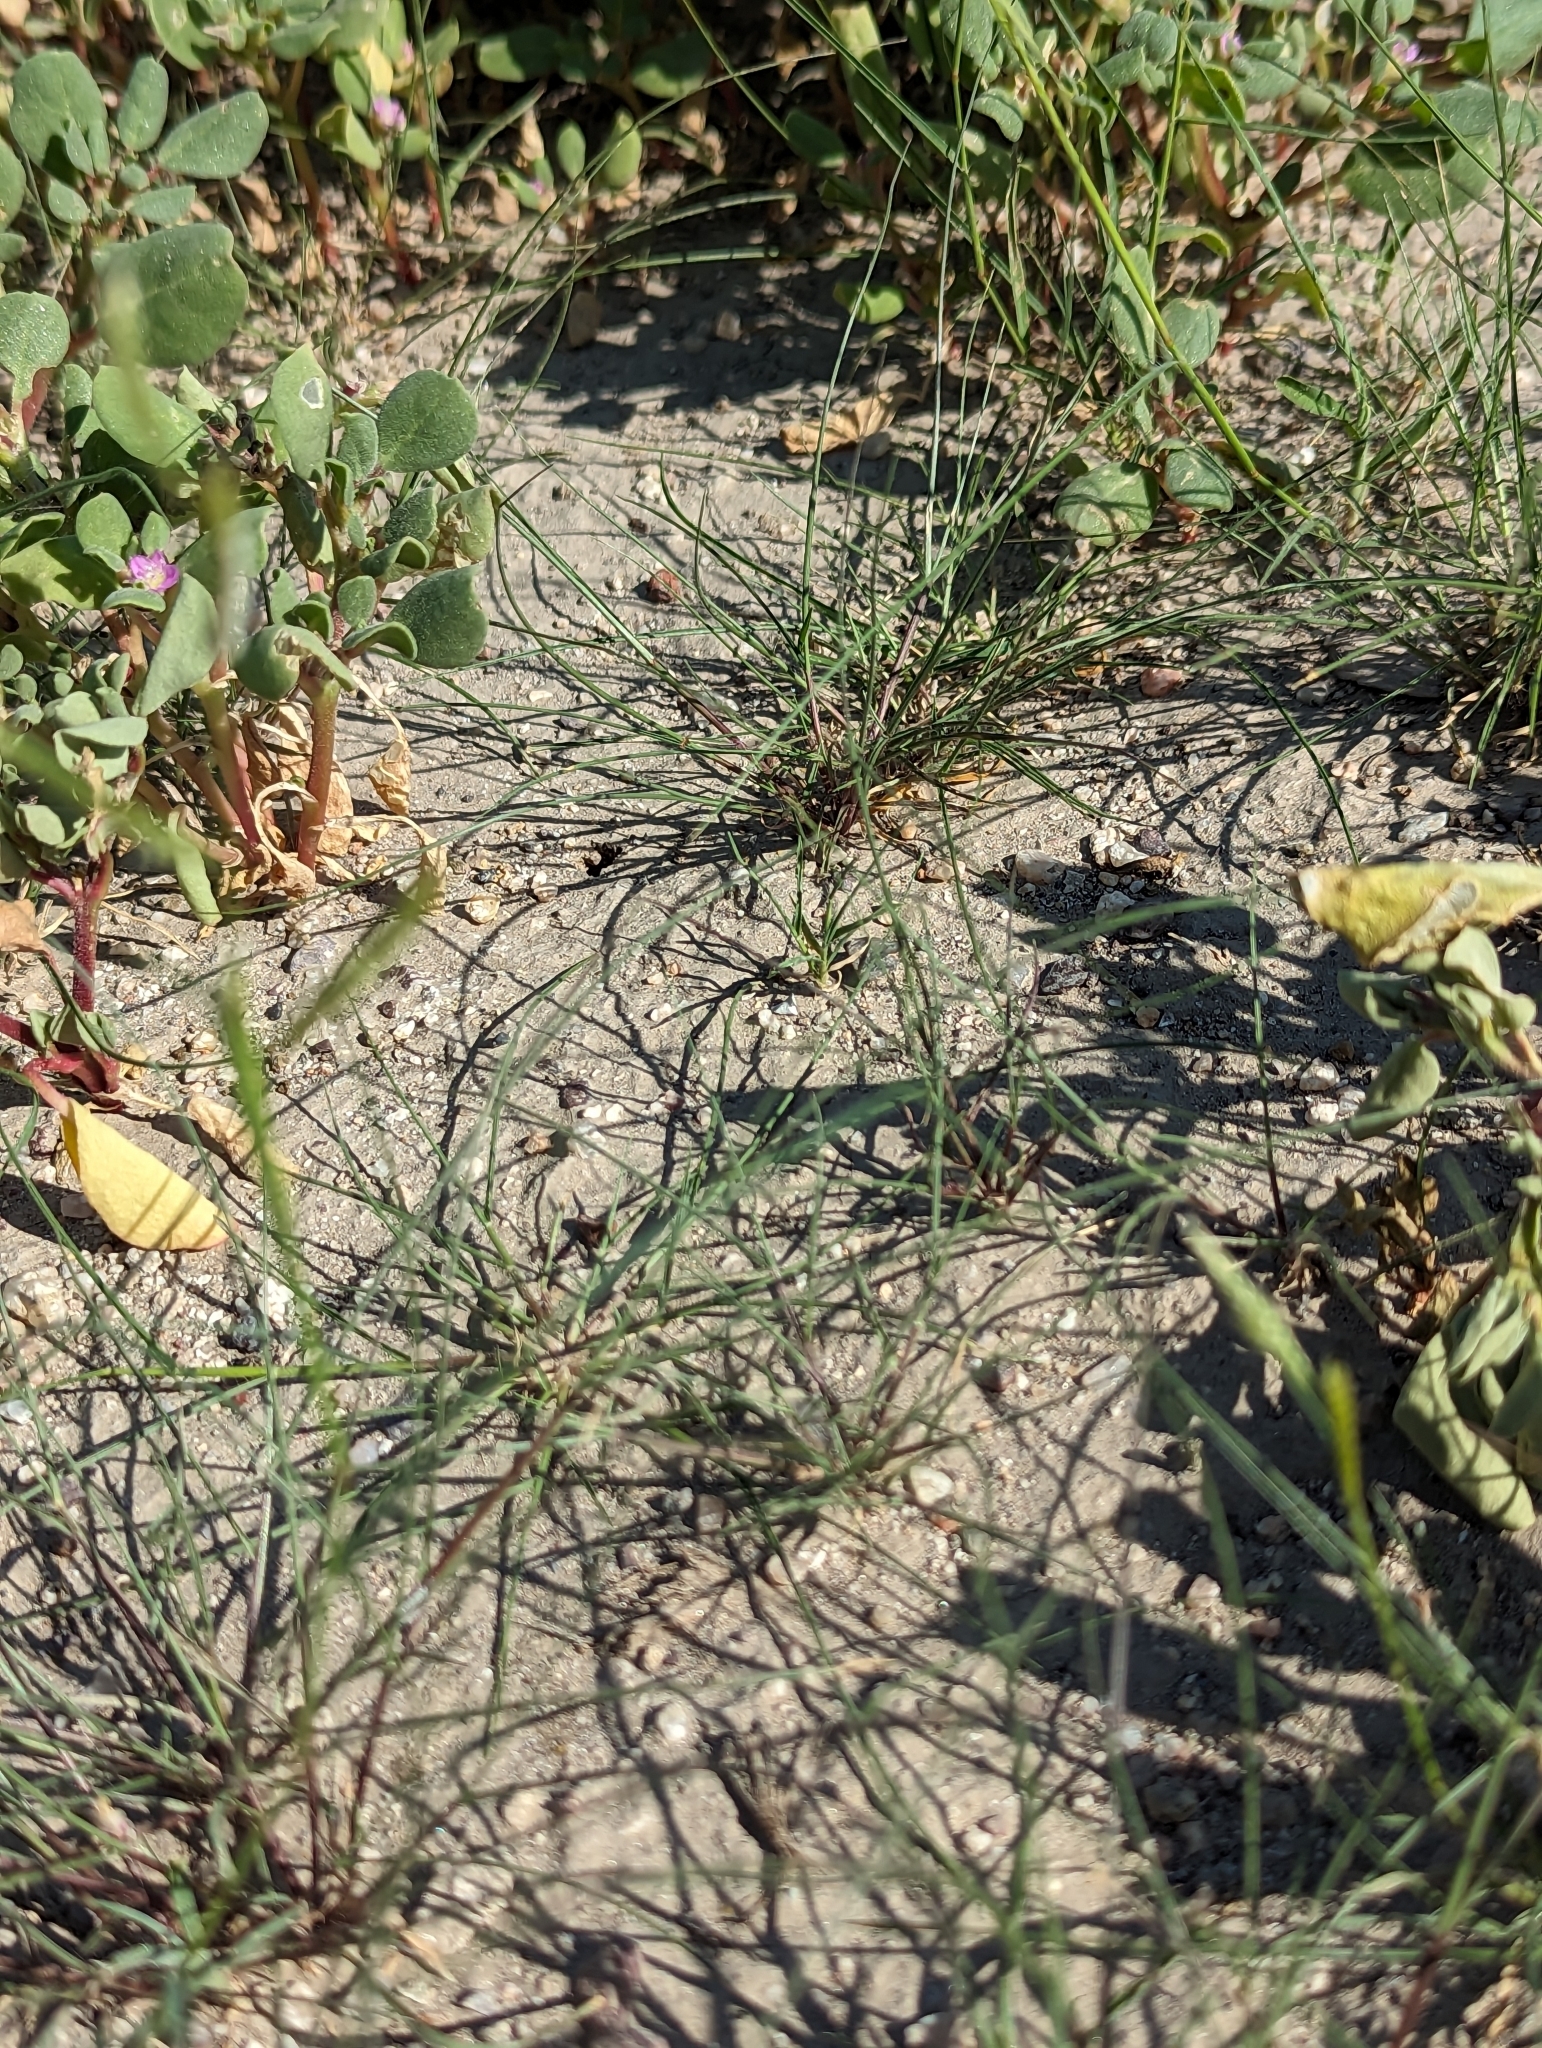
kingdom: Plantae
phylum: Tracheophyta
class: Liliopsida
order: Poales
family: Poaceae
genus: Bouteloua
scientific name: Bouteloua barbata
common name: Six-weeks grama
